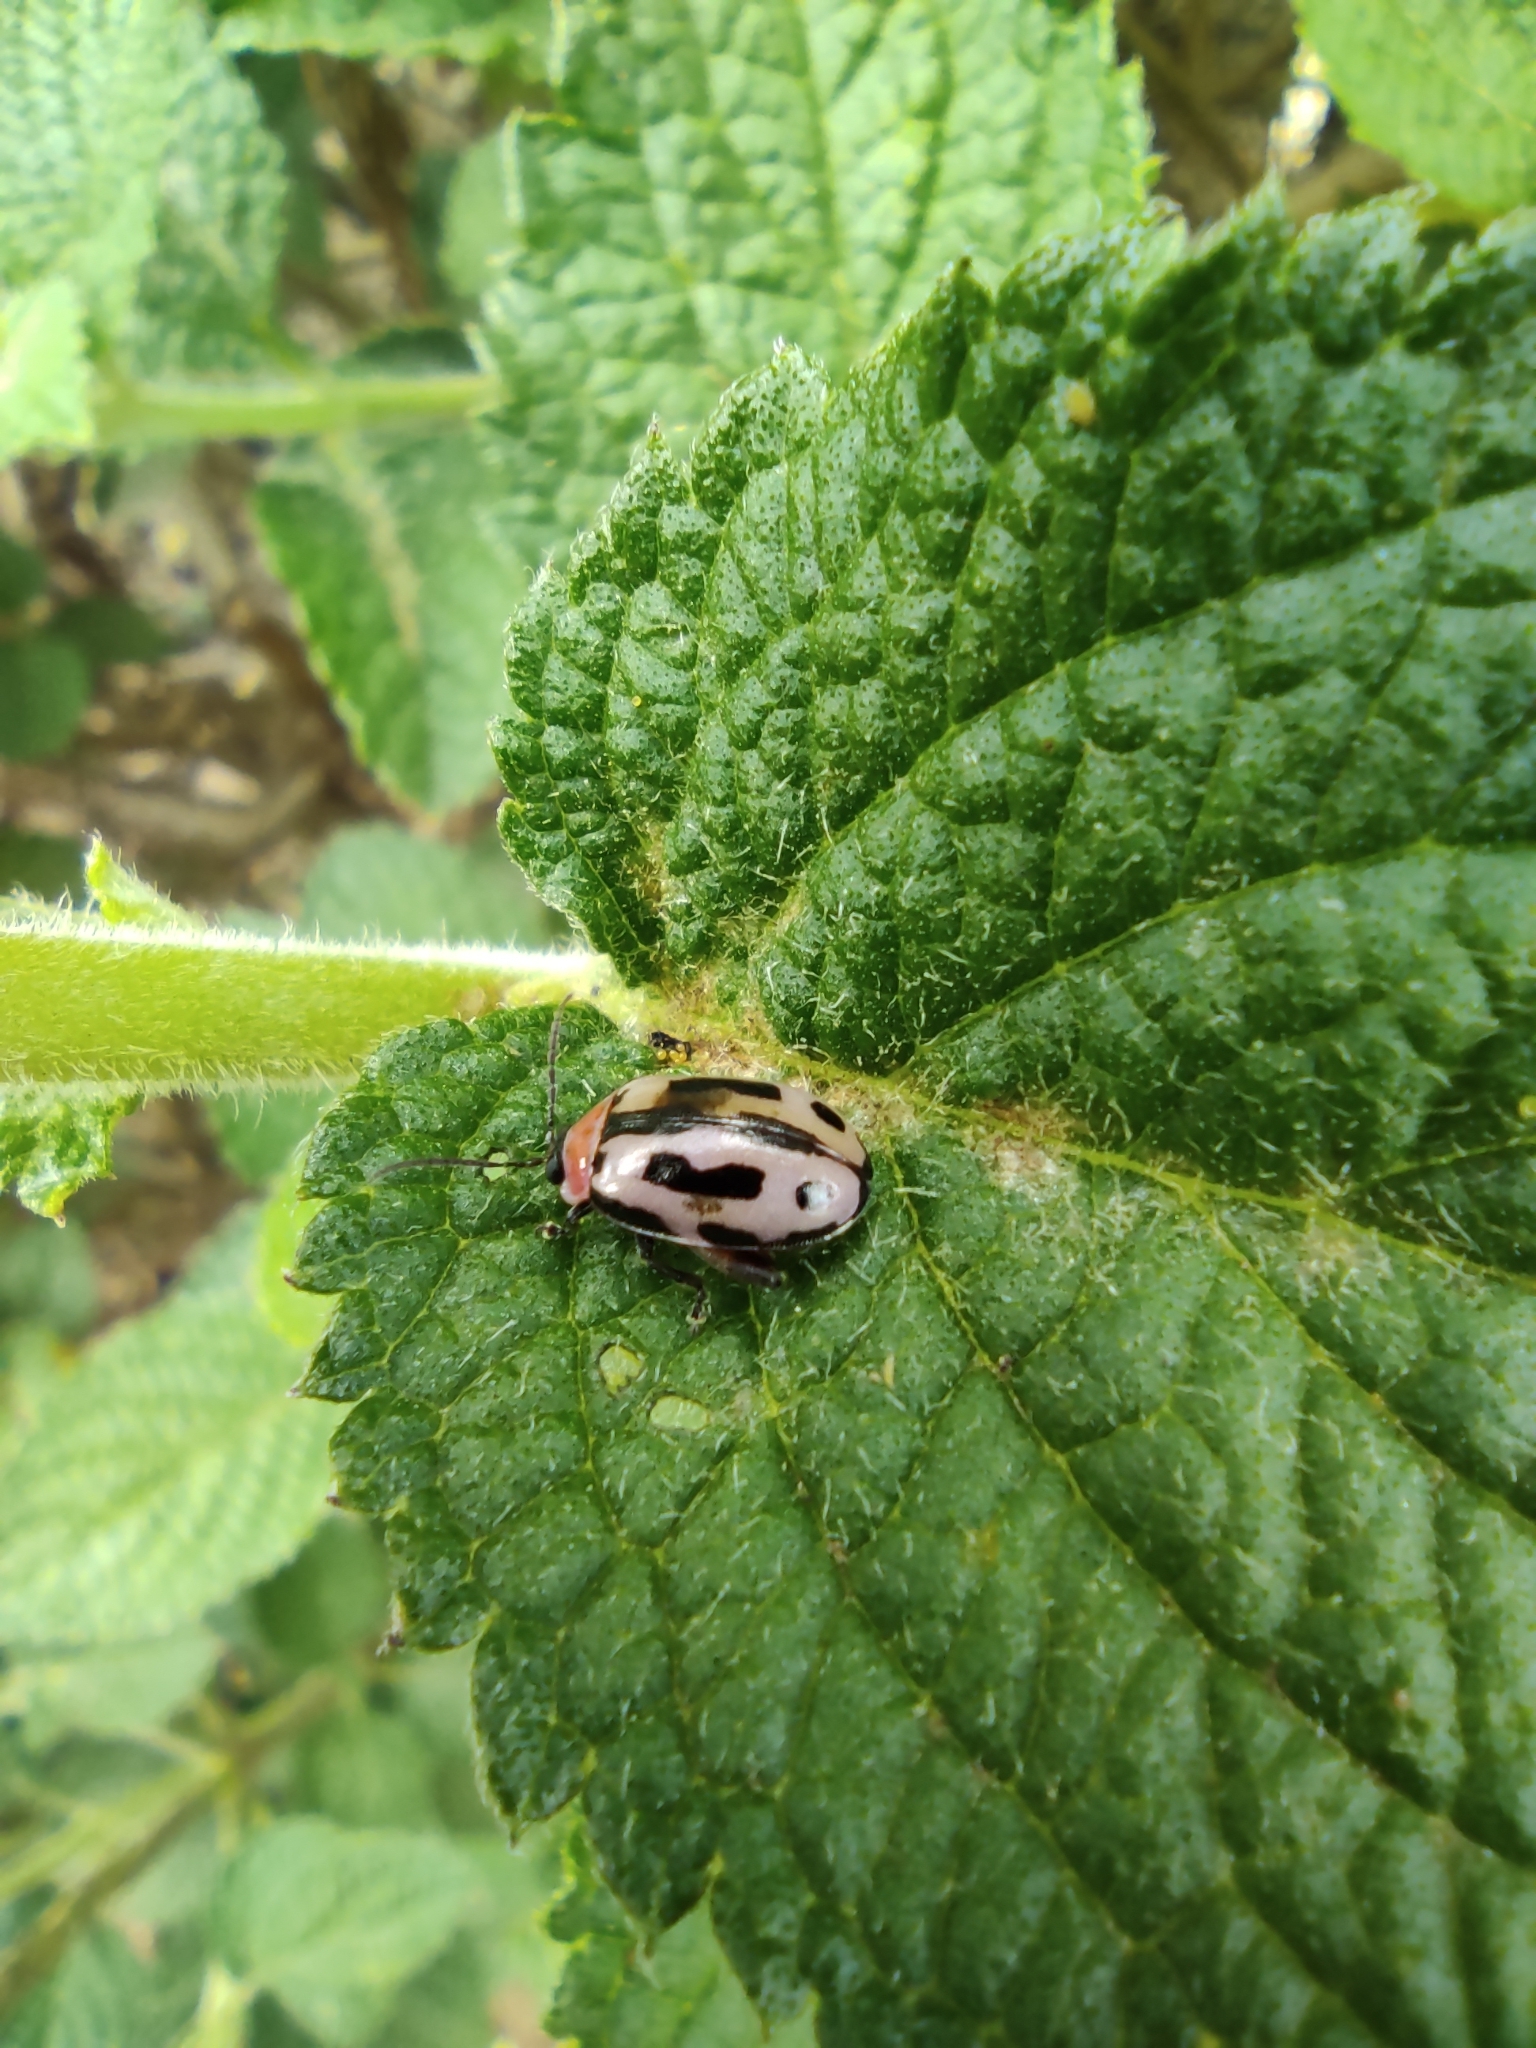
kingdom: Animalia
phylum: Arthropoda
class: Insecta
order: Coleoptera
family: Chrysomelidae
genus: Alagoasa
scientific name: Alagoasa
